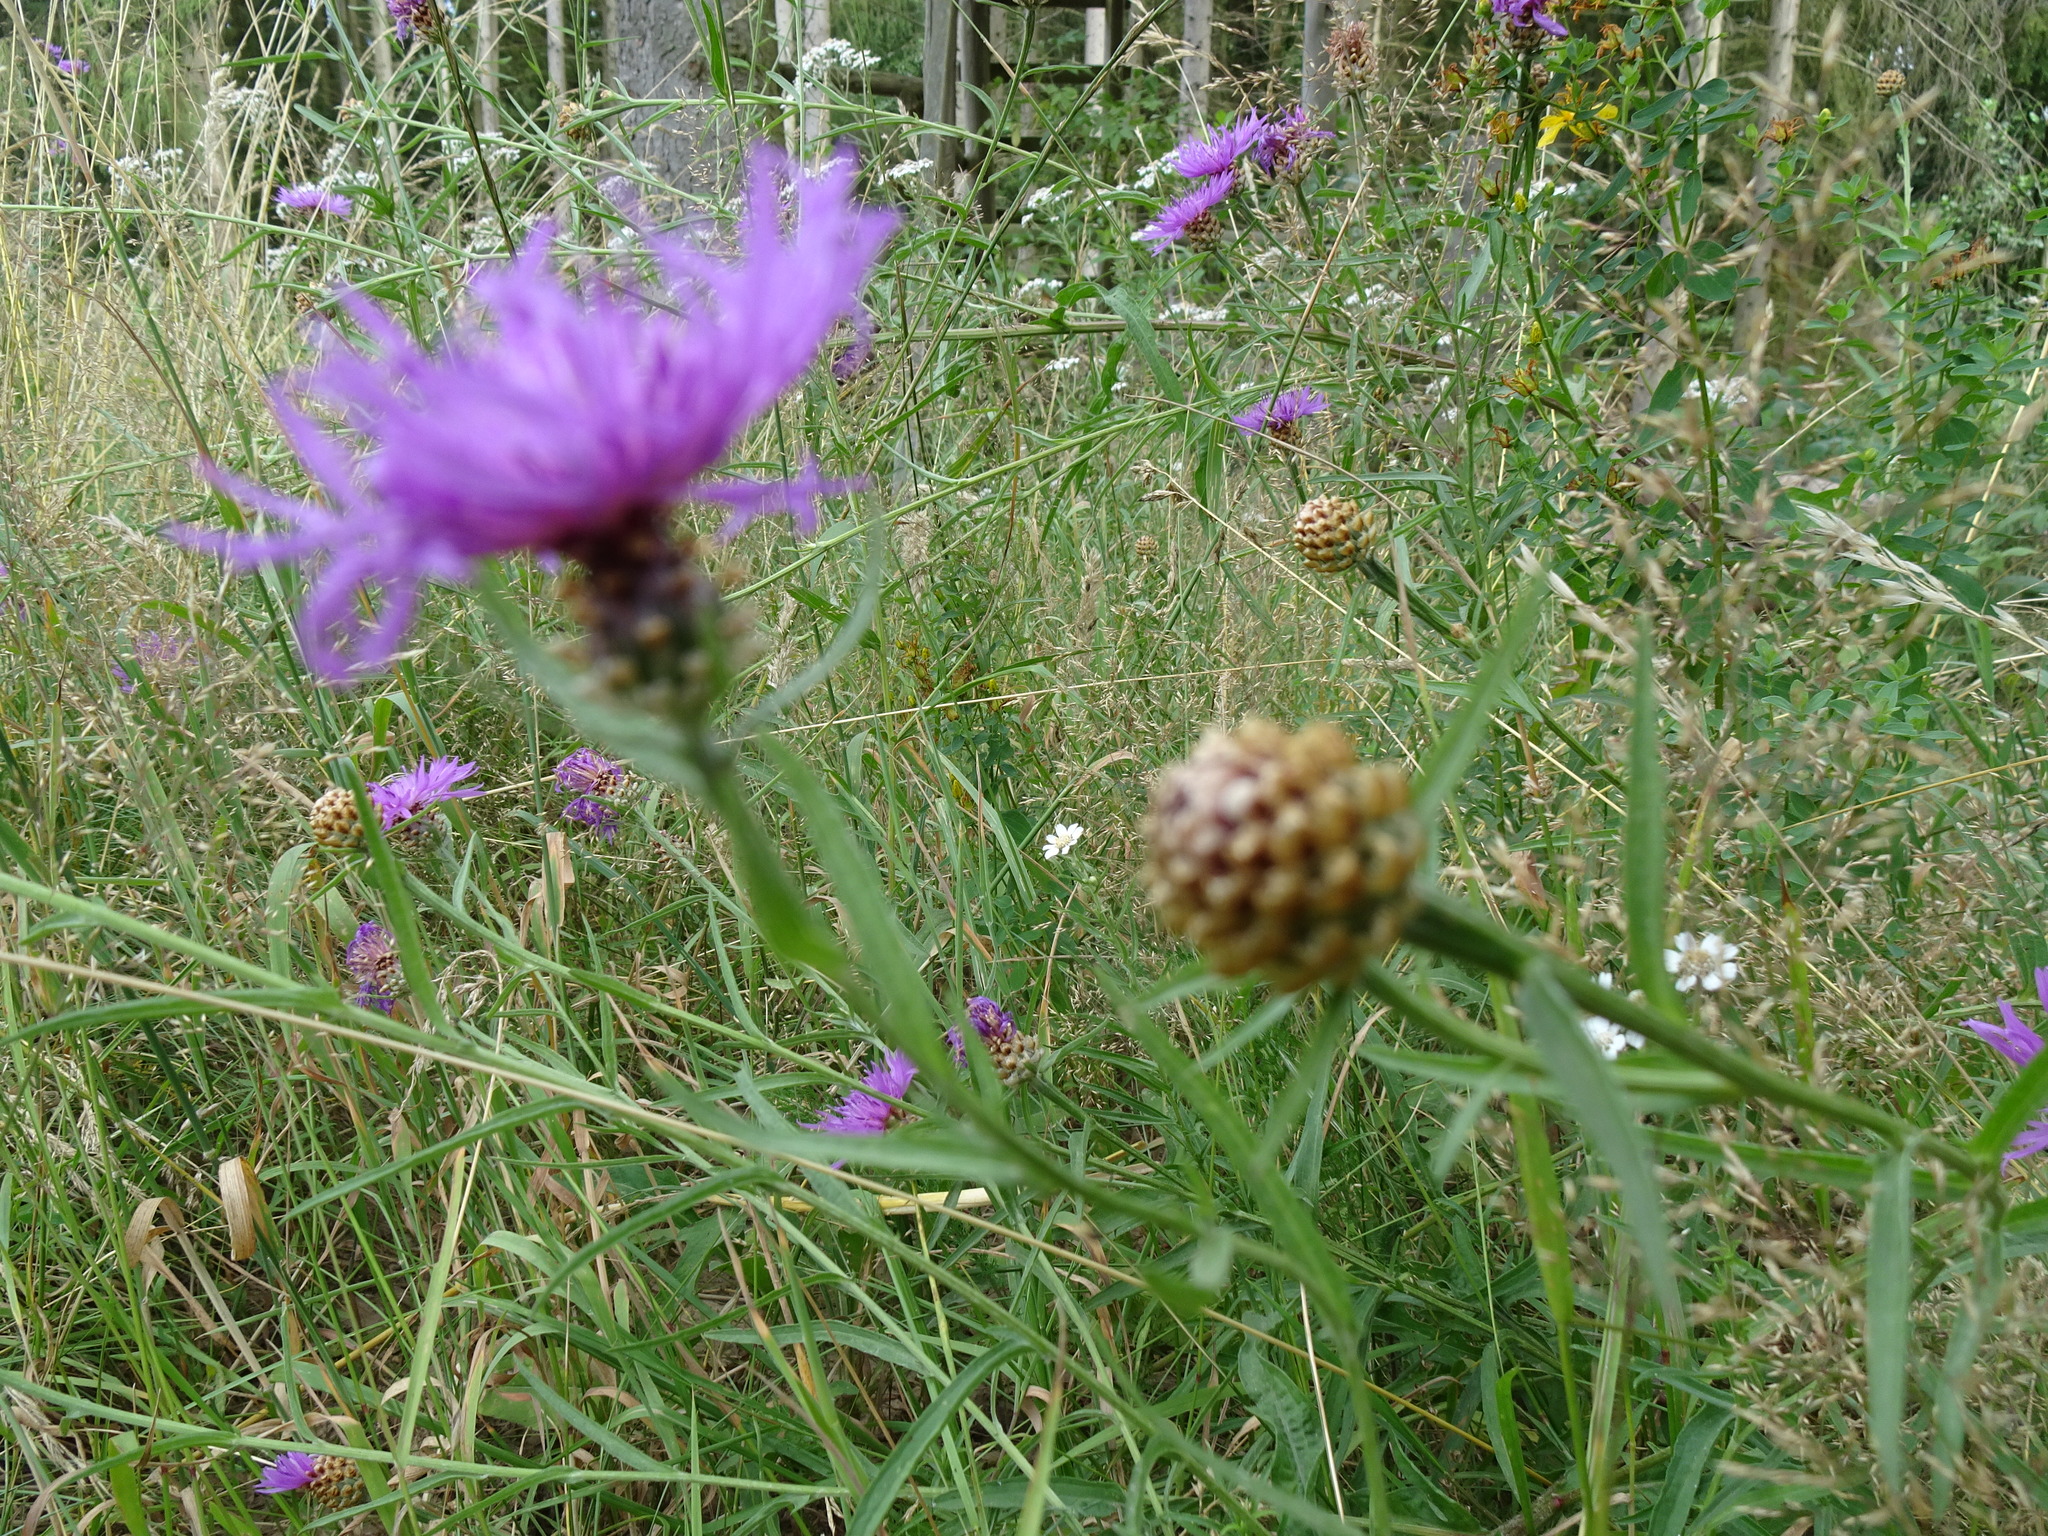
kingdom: Plantae
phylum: Tracheophyta
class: Magnoliopsida
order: Asterales
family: Asteraceae
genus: Centaurea
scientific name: Centaurea jacea
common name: Brown knapweed
